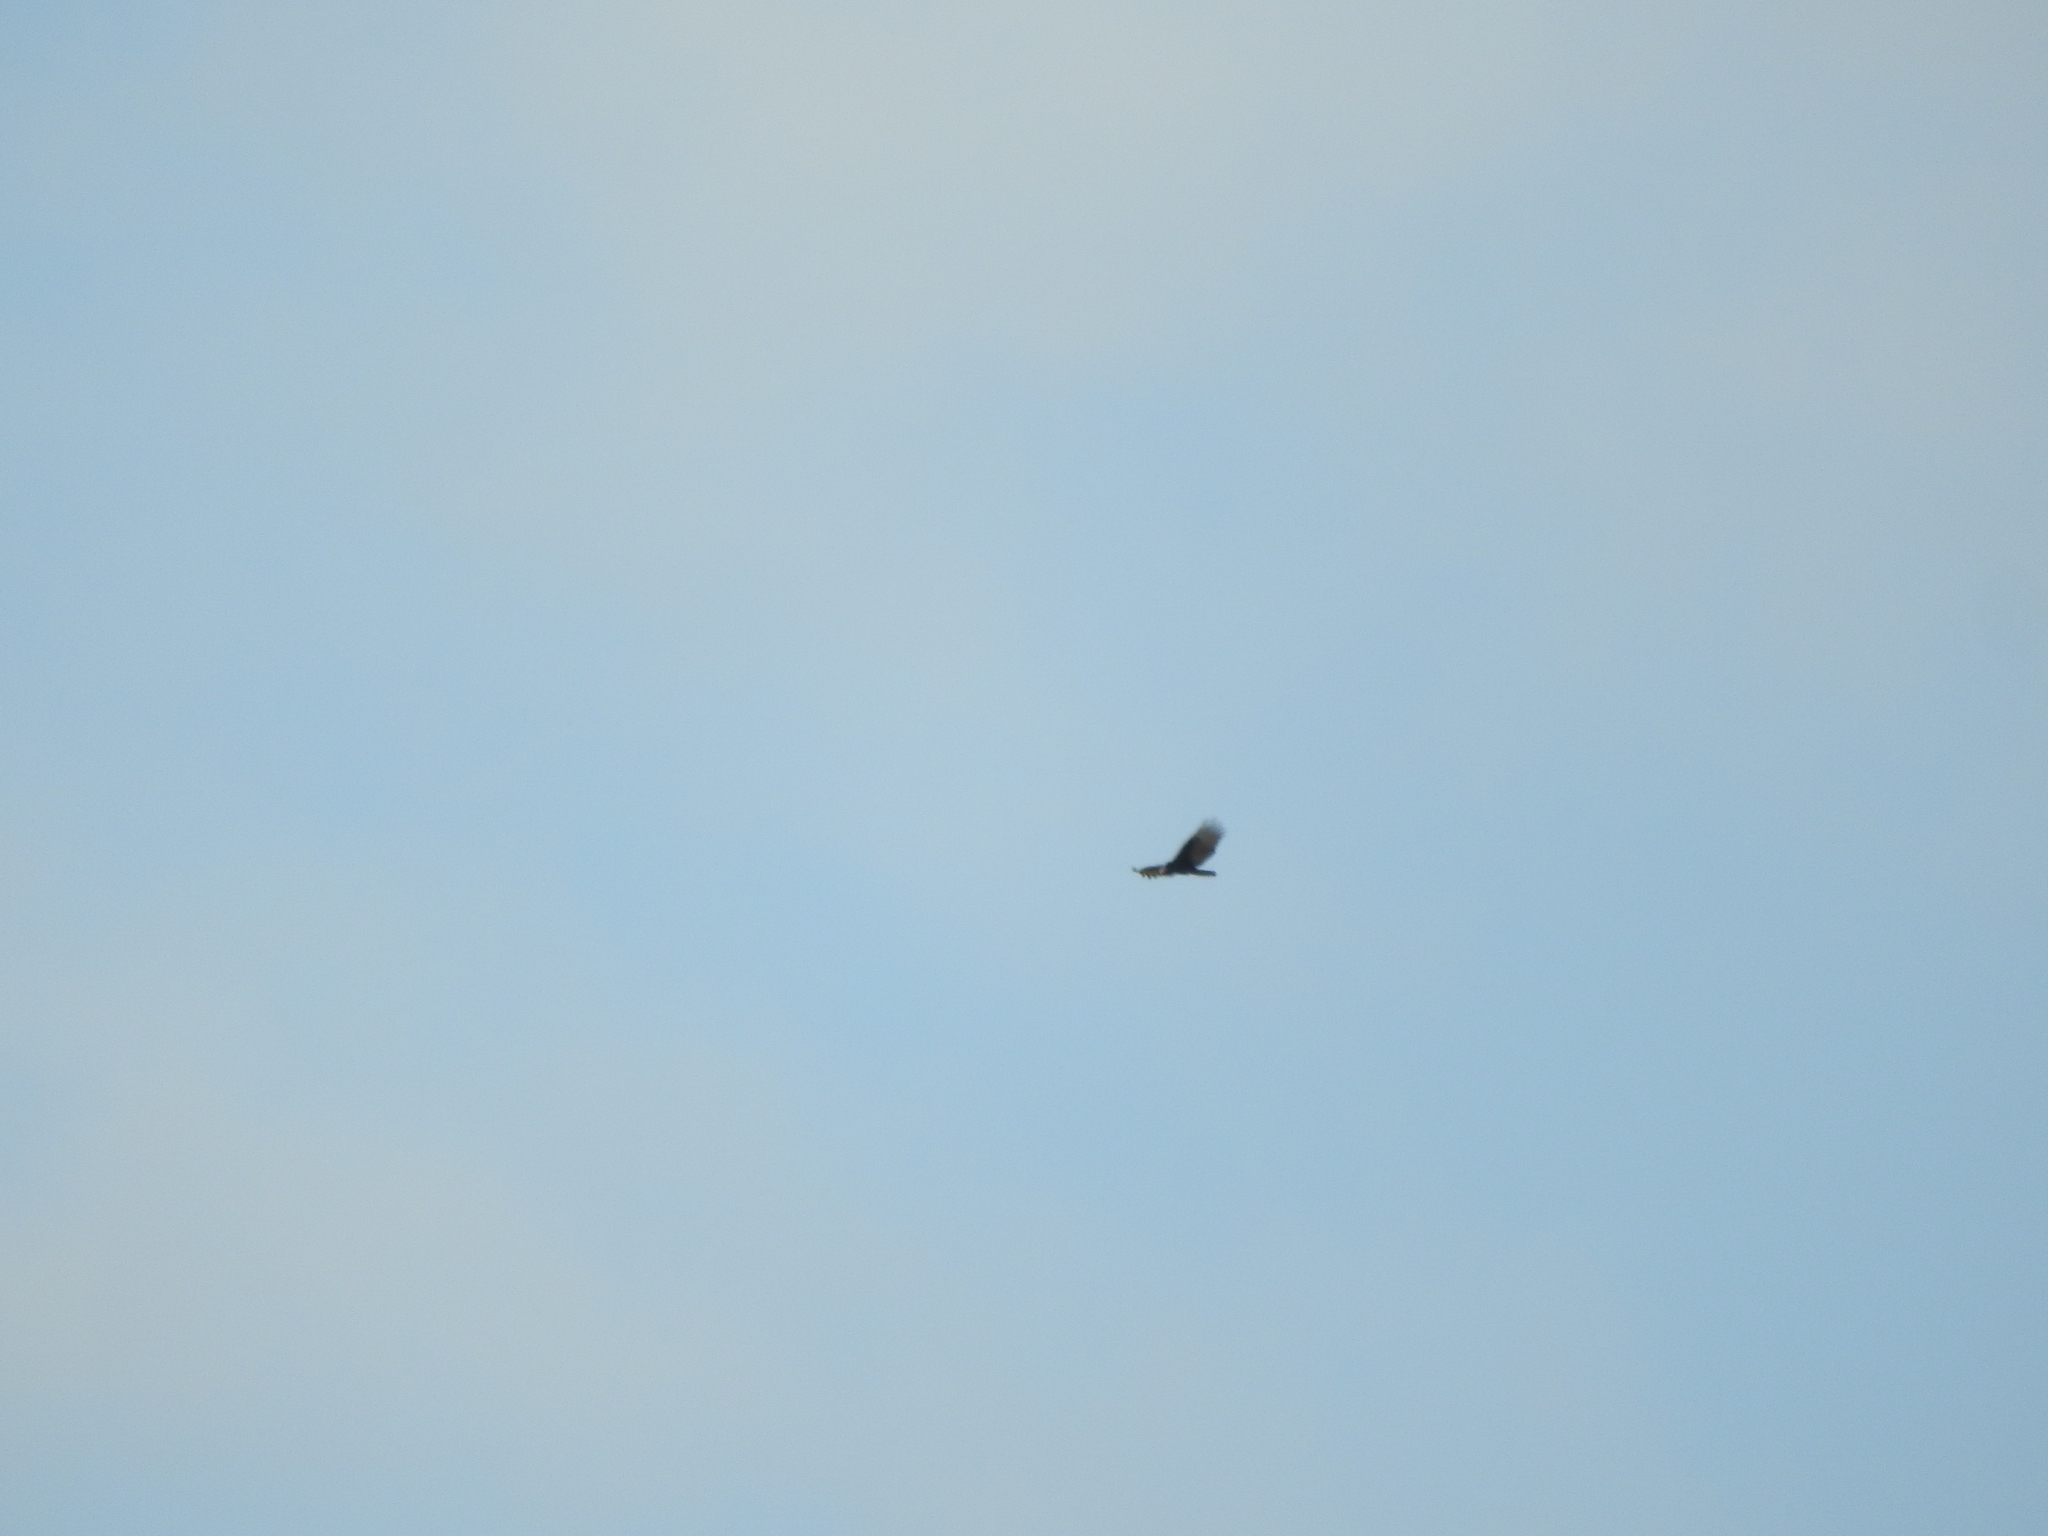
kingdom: Animalia
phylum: Chordata
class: Aves
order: Accipitriformes
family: Cathartidae
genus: Cathartes
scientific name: Cathartes aura
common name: Turkey vulture
